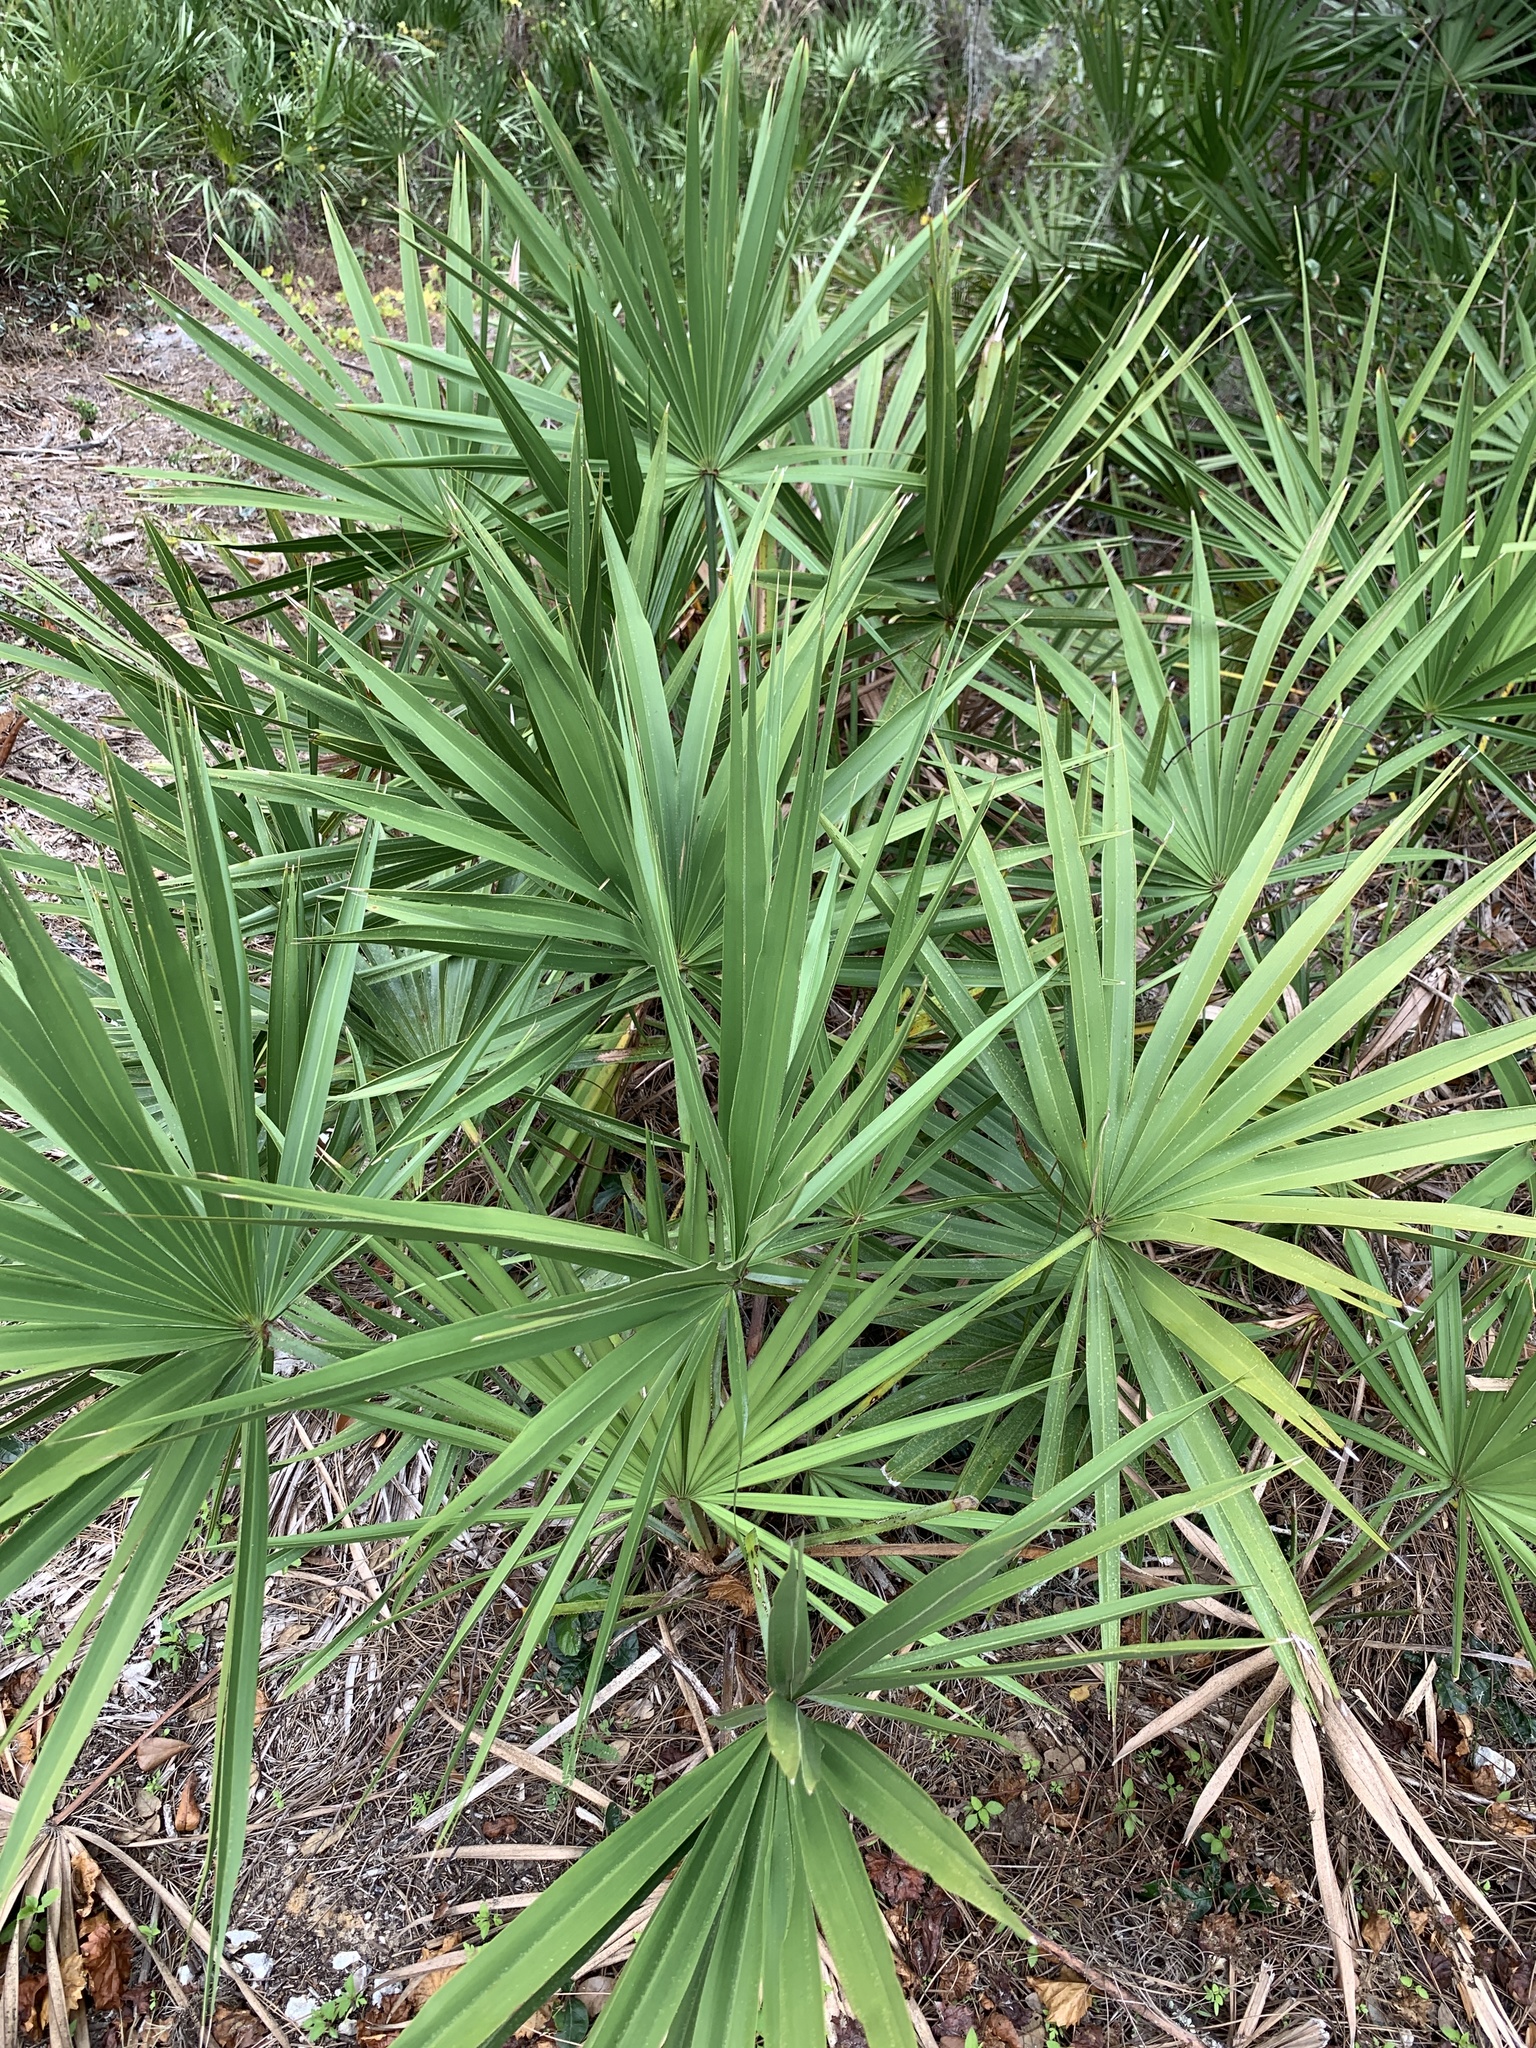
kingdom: Plantae
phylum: Tracheophyta
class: Liliopsida
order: Arecales
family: Arecaceae
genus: Serenoa
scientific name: Serenoa repens
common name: Saw-palmetto
